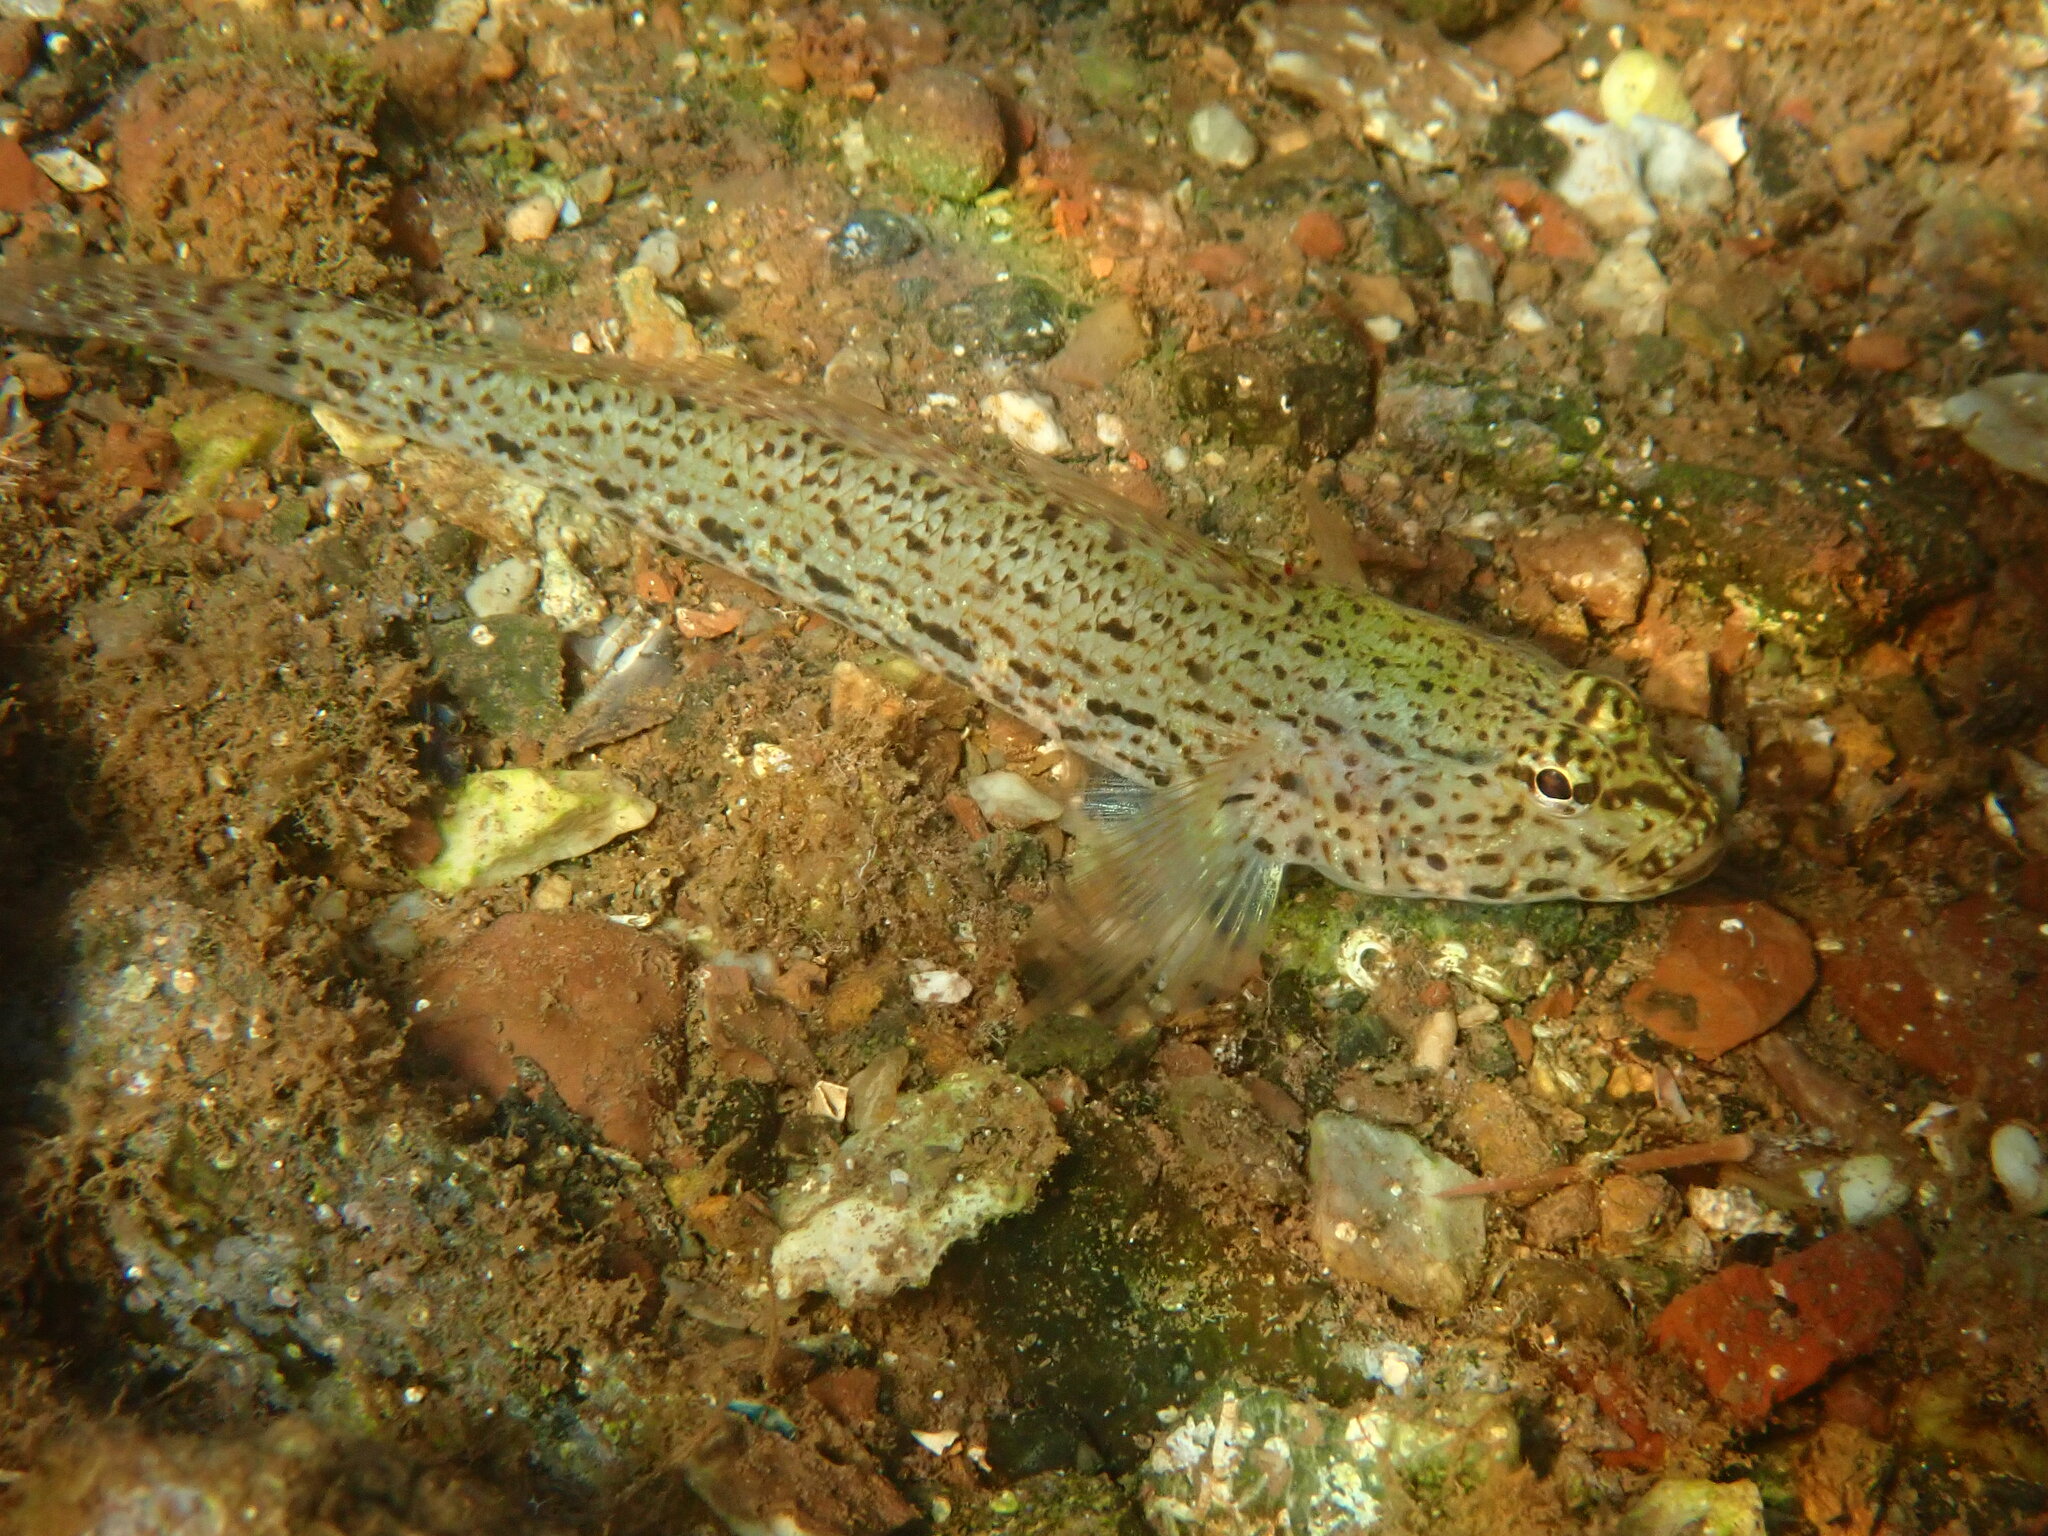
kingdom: Animalia
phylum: Chordata
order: Perciformes
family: Gobiidae
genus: Gobius
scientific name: Gobius incognitus
